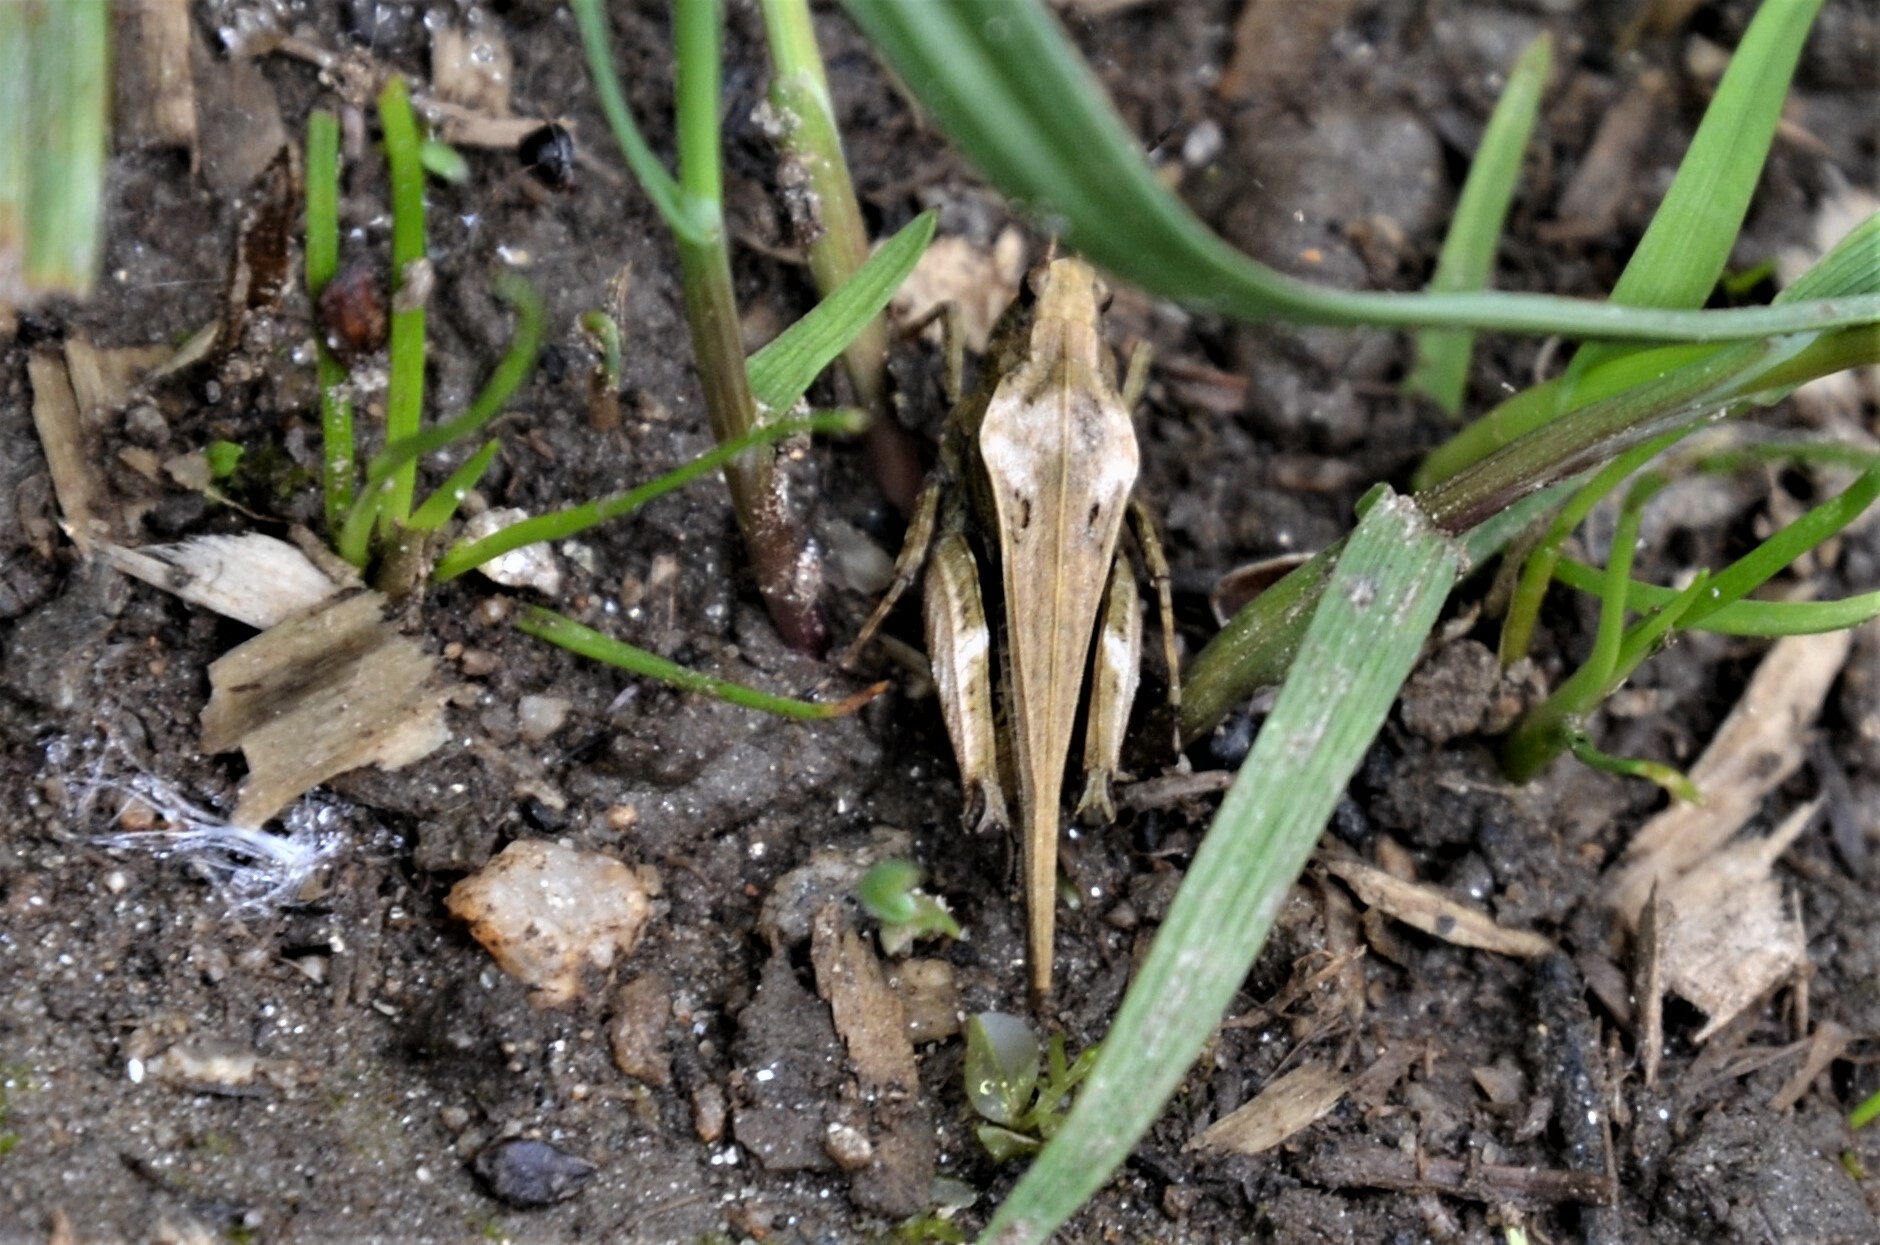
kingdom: Animalia
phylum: Arthropoda
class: Insecta
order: Orthoptera
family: Tetrigidae
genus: Tetrix
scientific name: Tetrix subulata
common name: Slender ground-hopper
